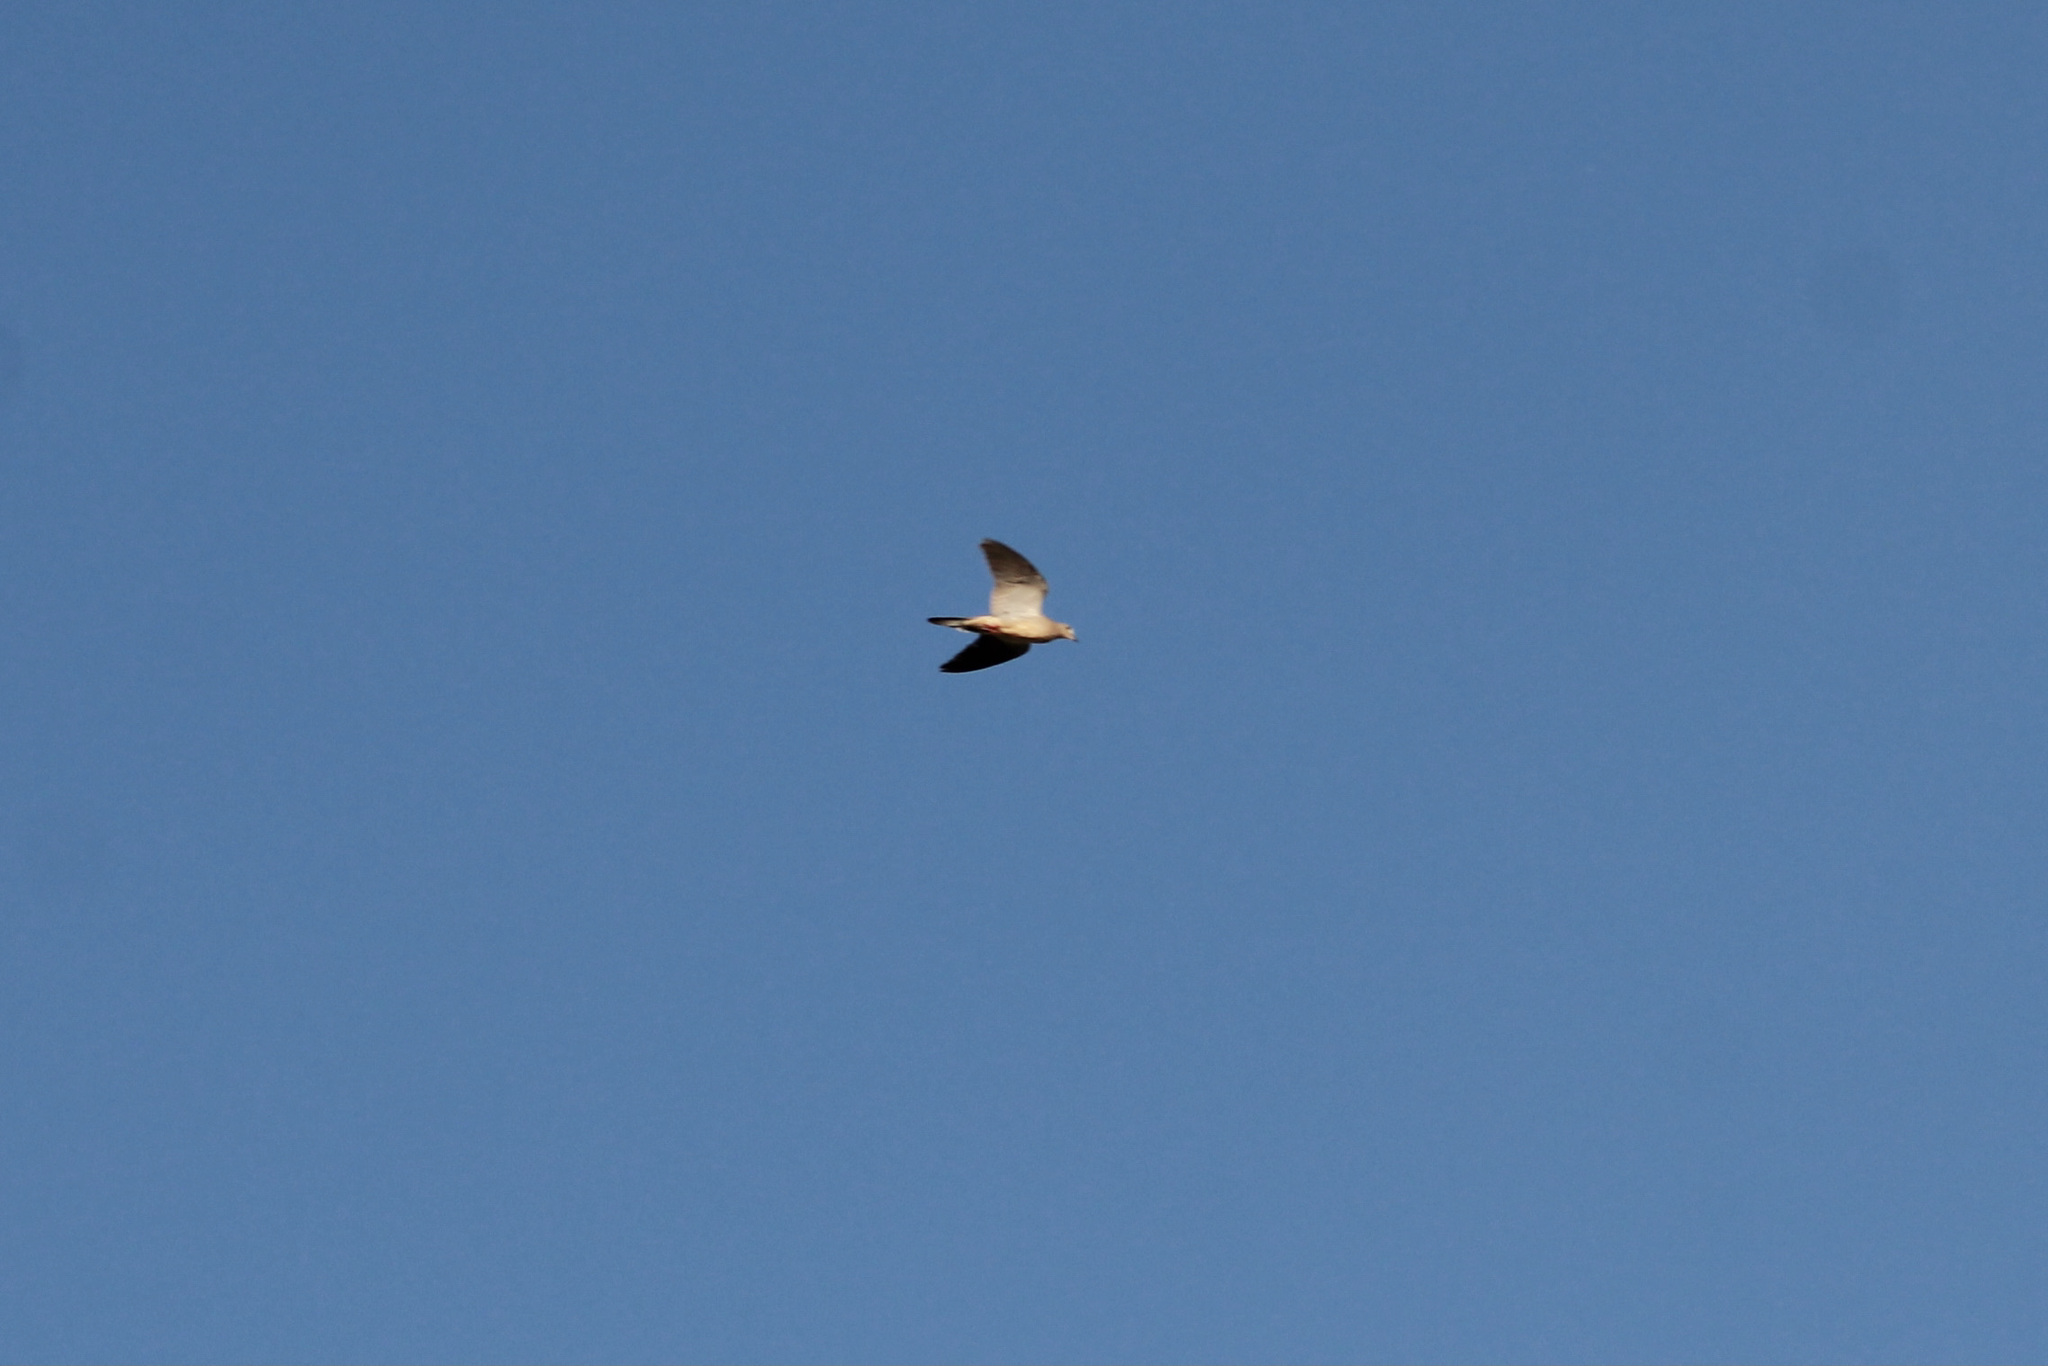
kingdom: Animalia
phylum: Chordata
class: Aves
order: Columbiformes
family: Columbidae
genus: Zenaida
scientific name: Zenaida macroura
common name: Mourning dove
